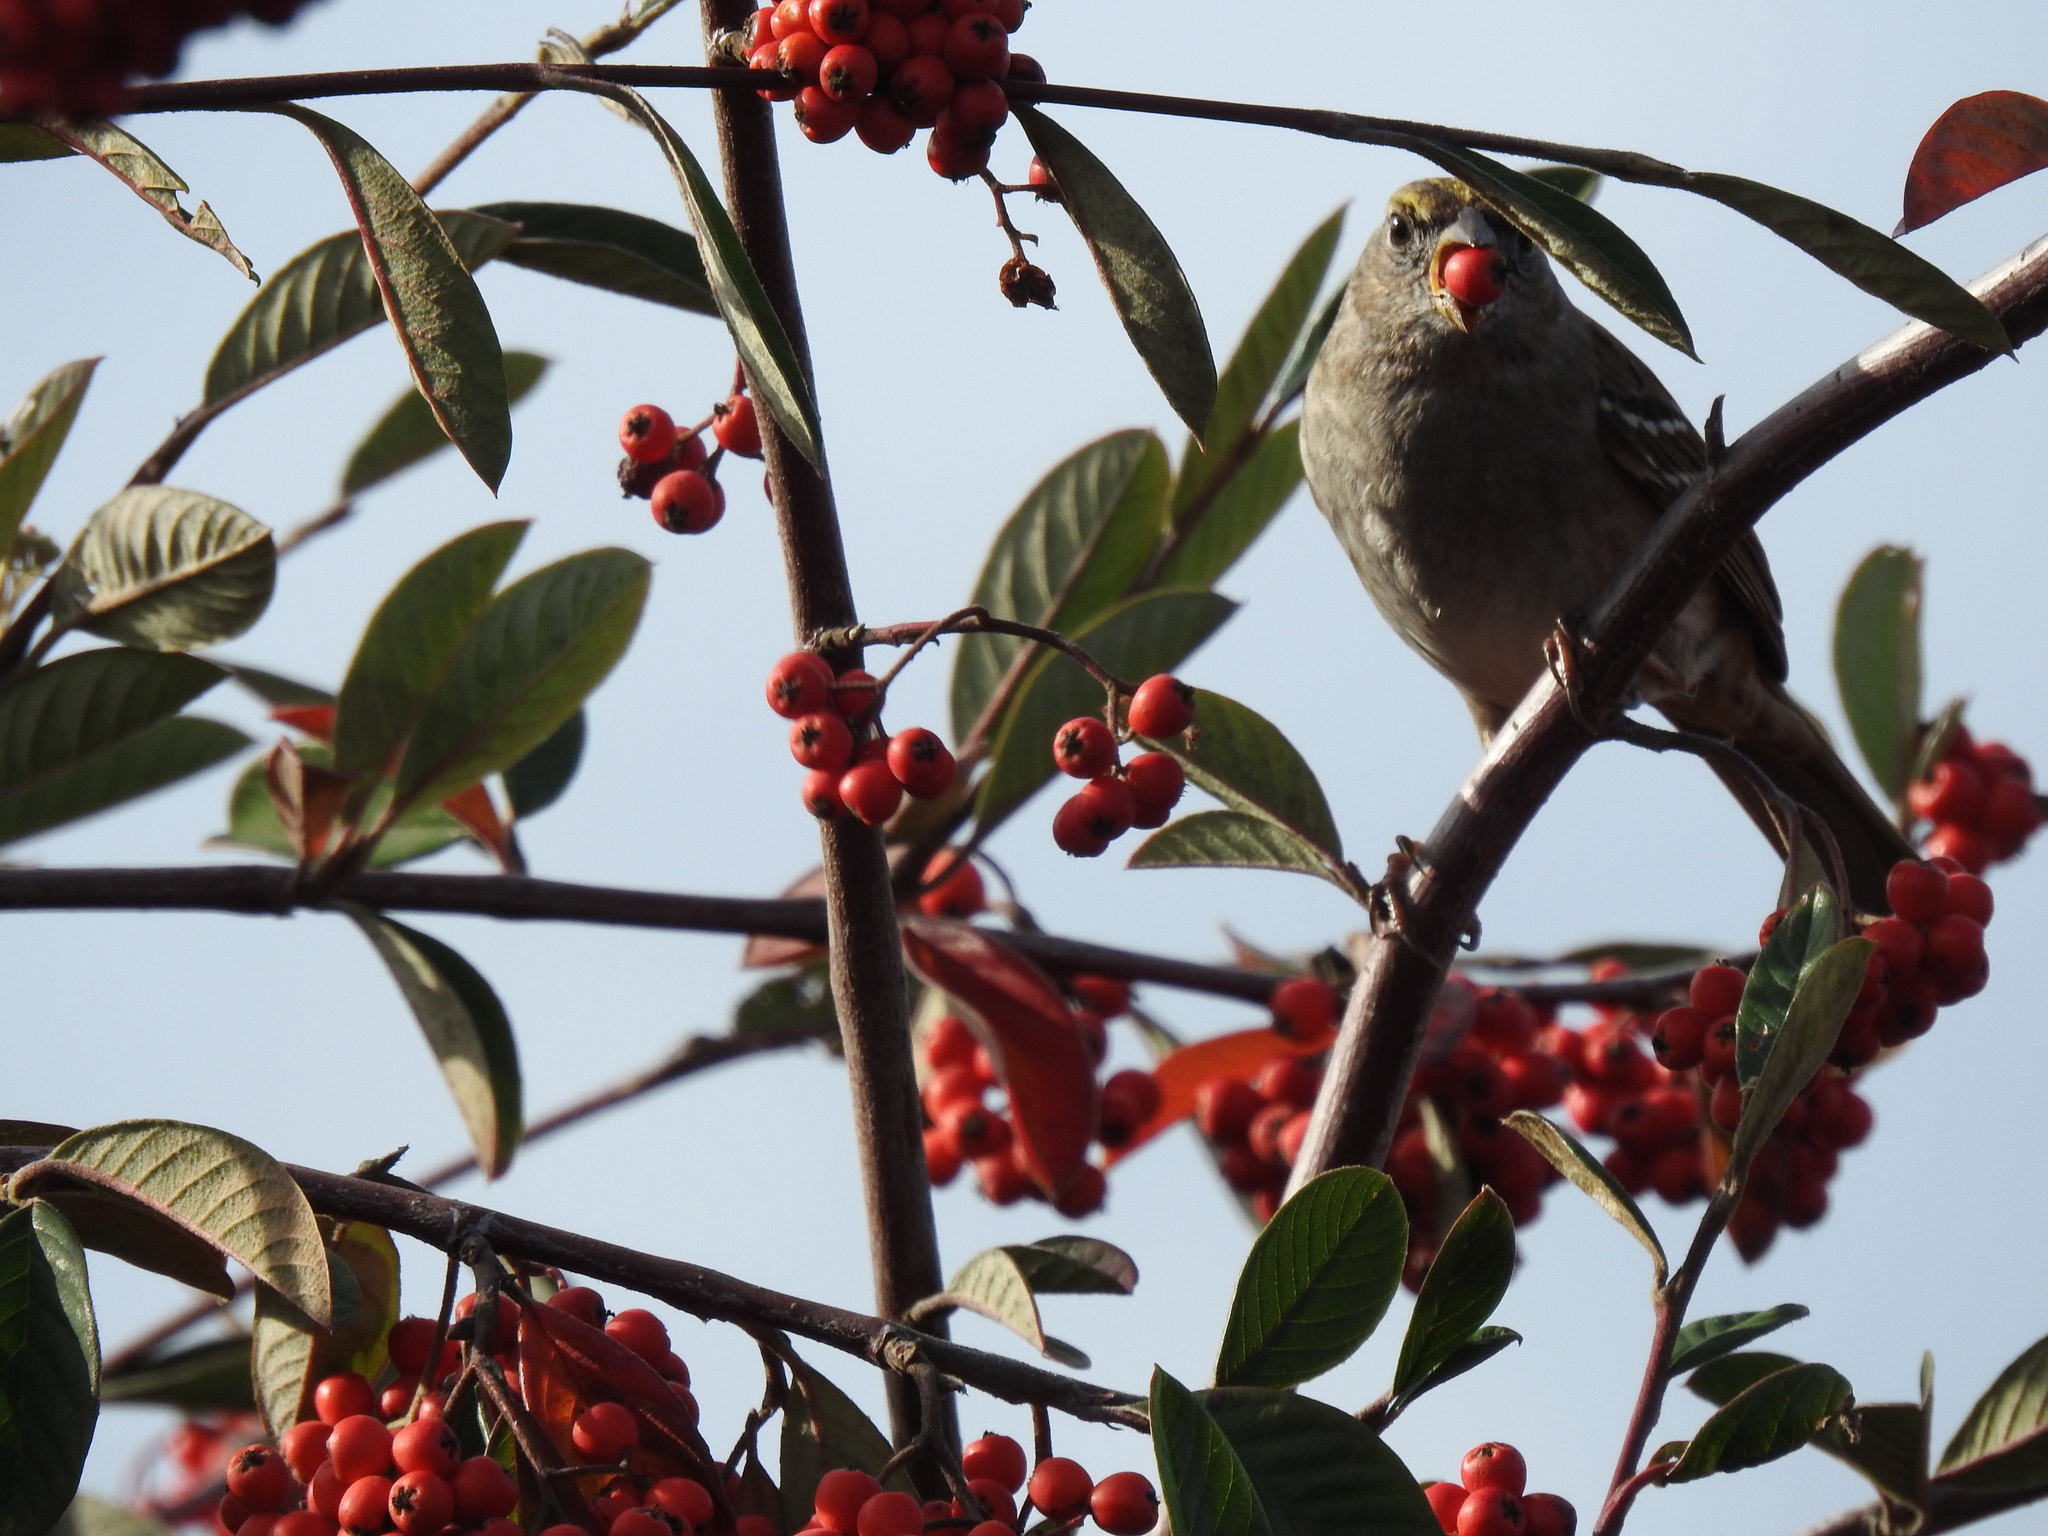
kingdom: Animalia
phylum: Chordata
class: Aves
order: Passeriformes
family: Passerellidae
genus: Zonotrichia
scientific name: Zonotrichia atricapilla
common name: Golden-crowned sparrow
